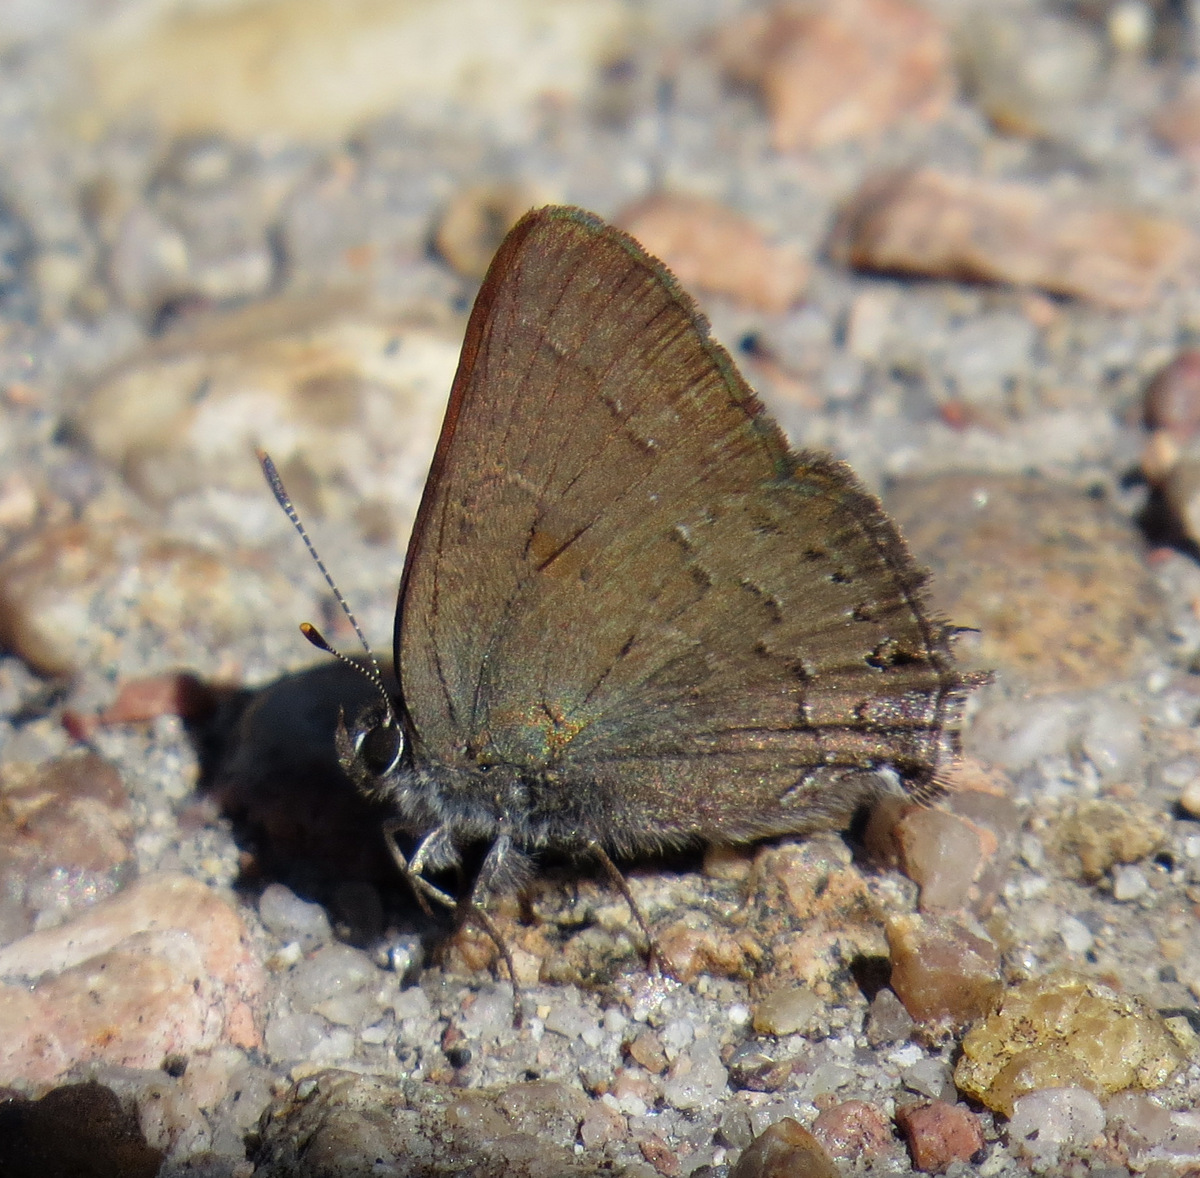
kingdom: Animalia
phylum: Arthropoda
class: Insecta
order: Lepidoptera
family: Lycaenidae
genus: Strymon
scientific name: Strymon saepium
